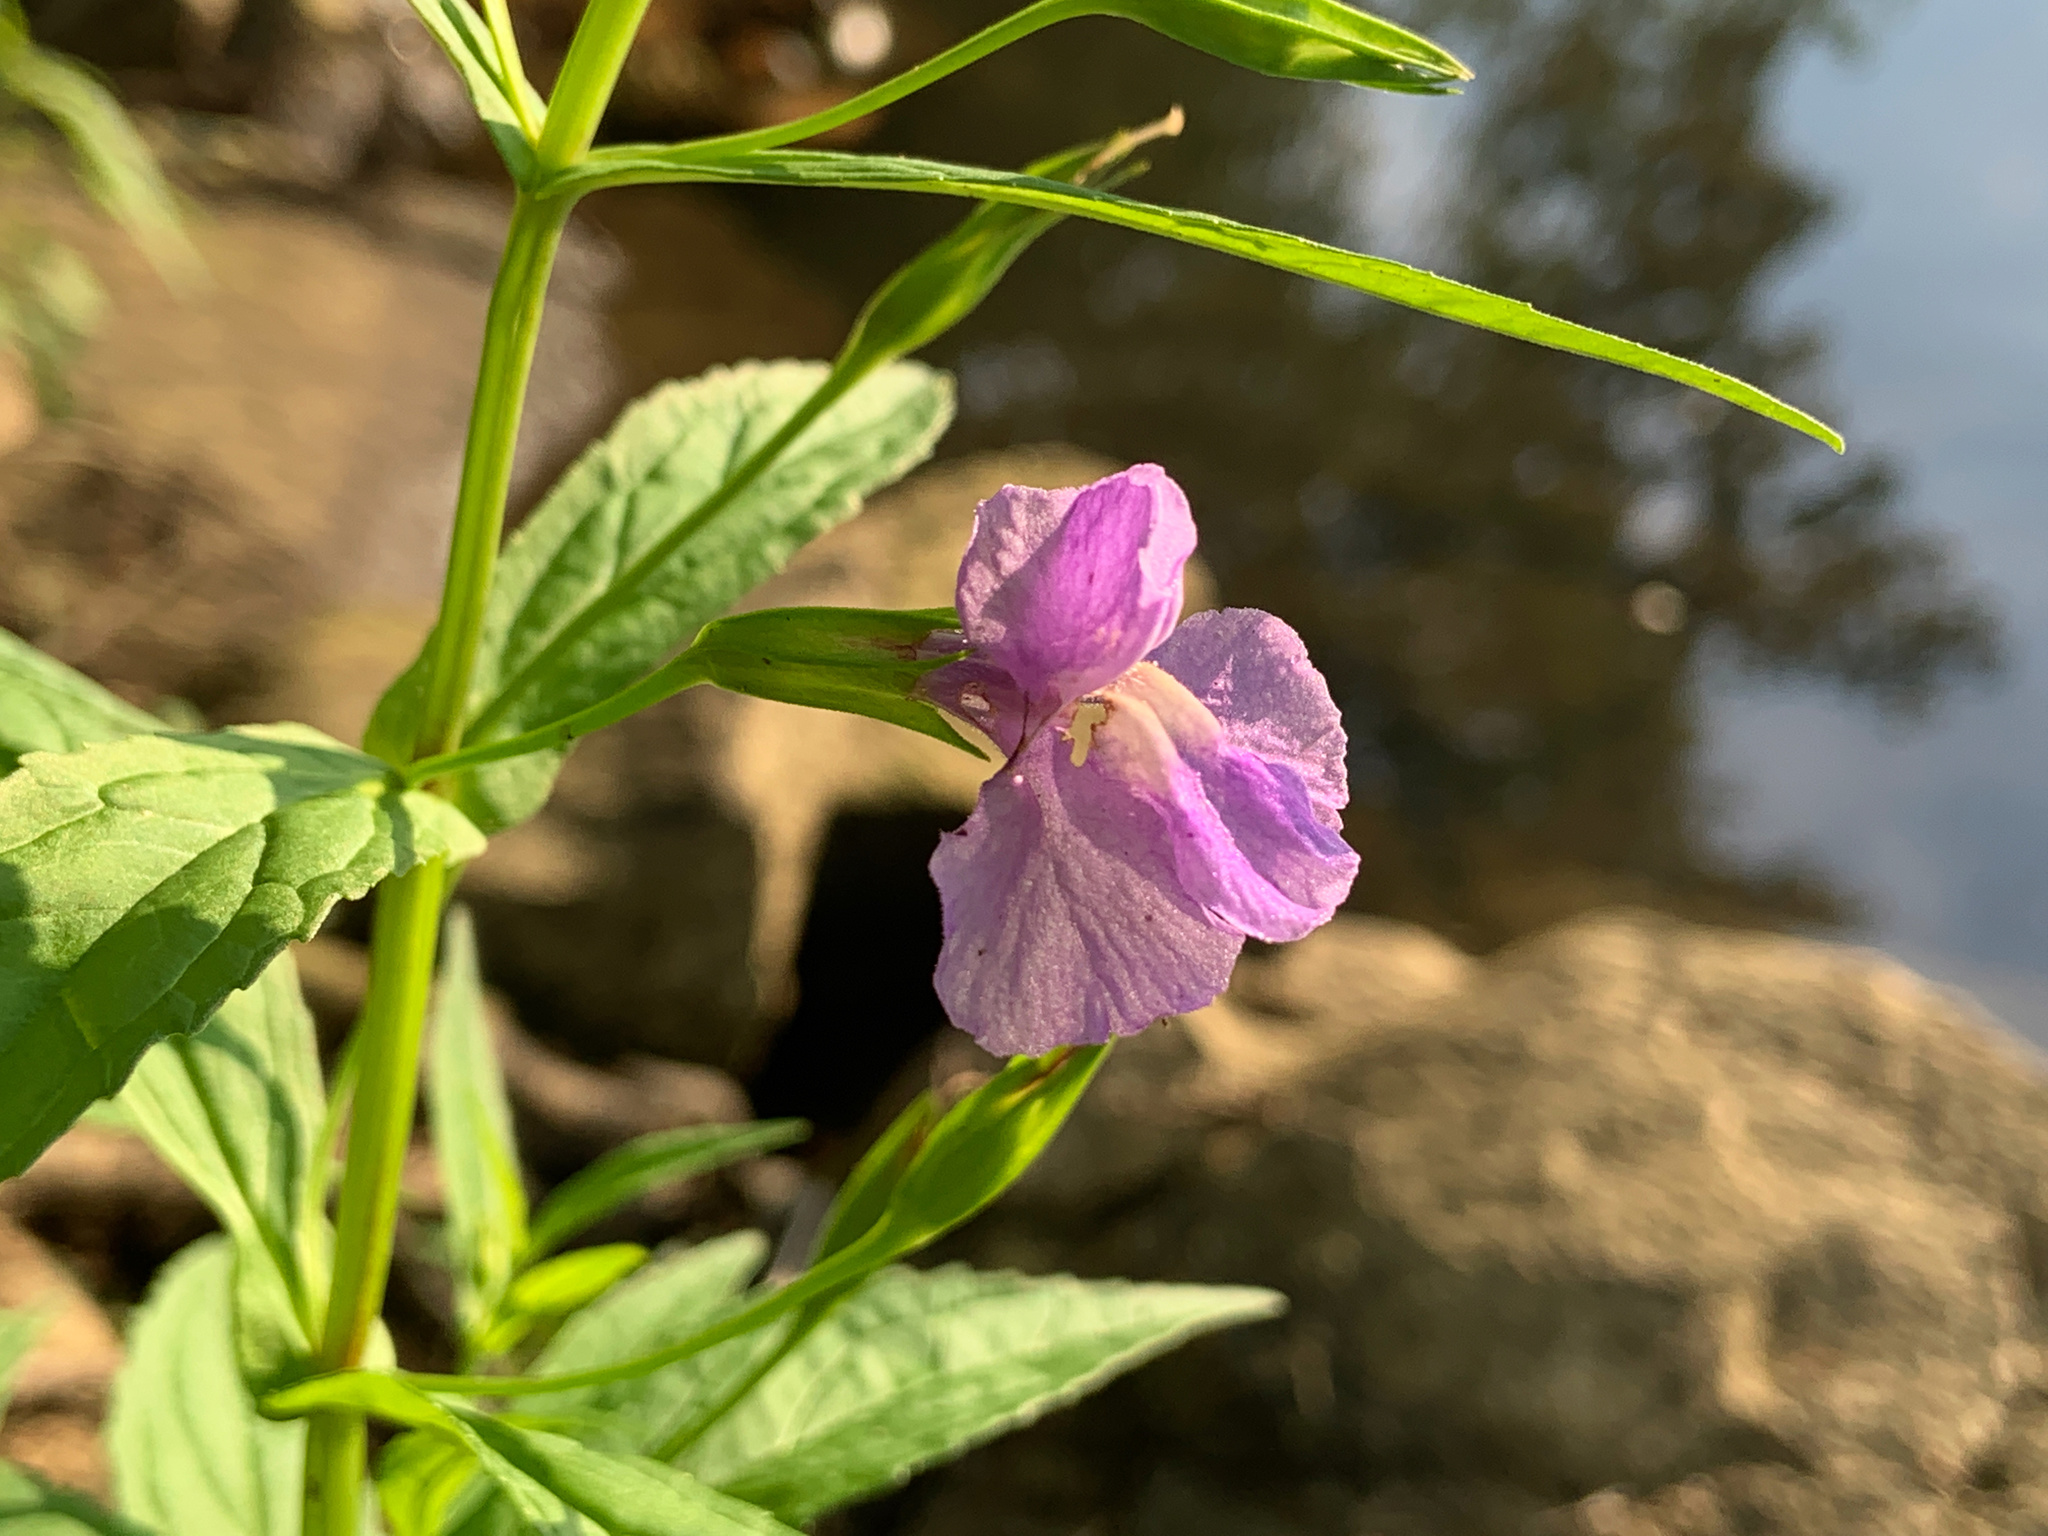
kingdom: Plantae
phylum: Tracheophyta
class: Magnoliopsida
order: Lamiales
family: Phrymaceae
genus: Mimulus
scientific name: Mimulus ringens
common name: Allegheny monkeyflower
